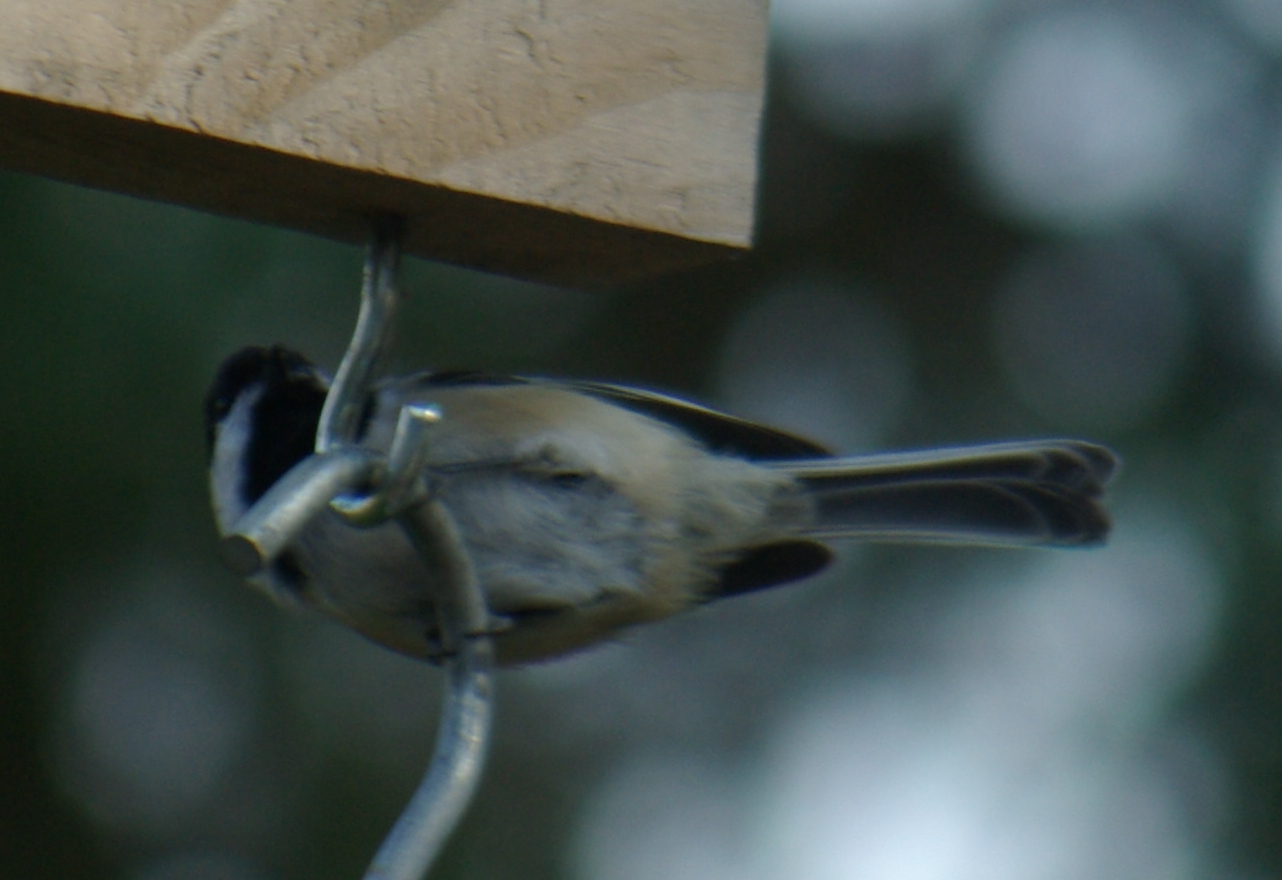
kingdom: Animalia
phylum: Chordata
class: Aves
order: Passeriformes
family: Paridae
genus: Poecile
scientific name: Poecile atricapillus
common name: Black-capped chickadee
